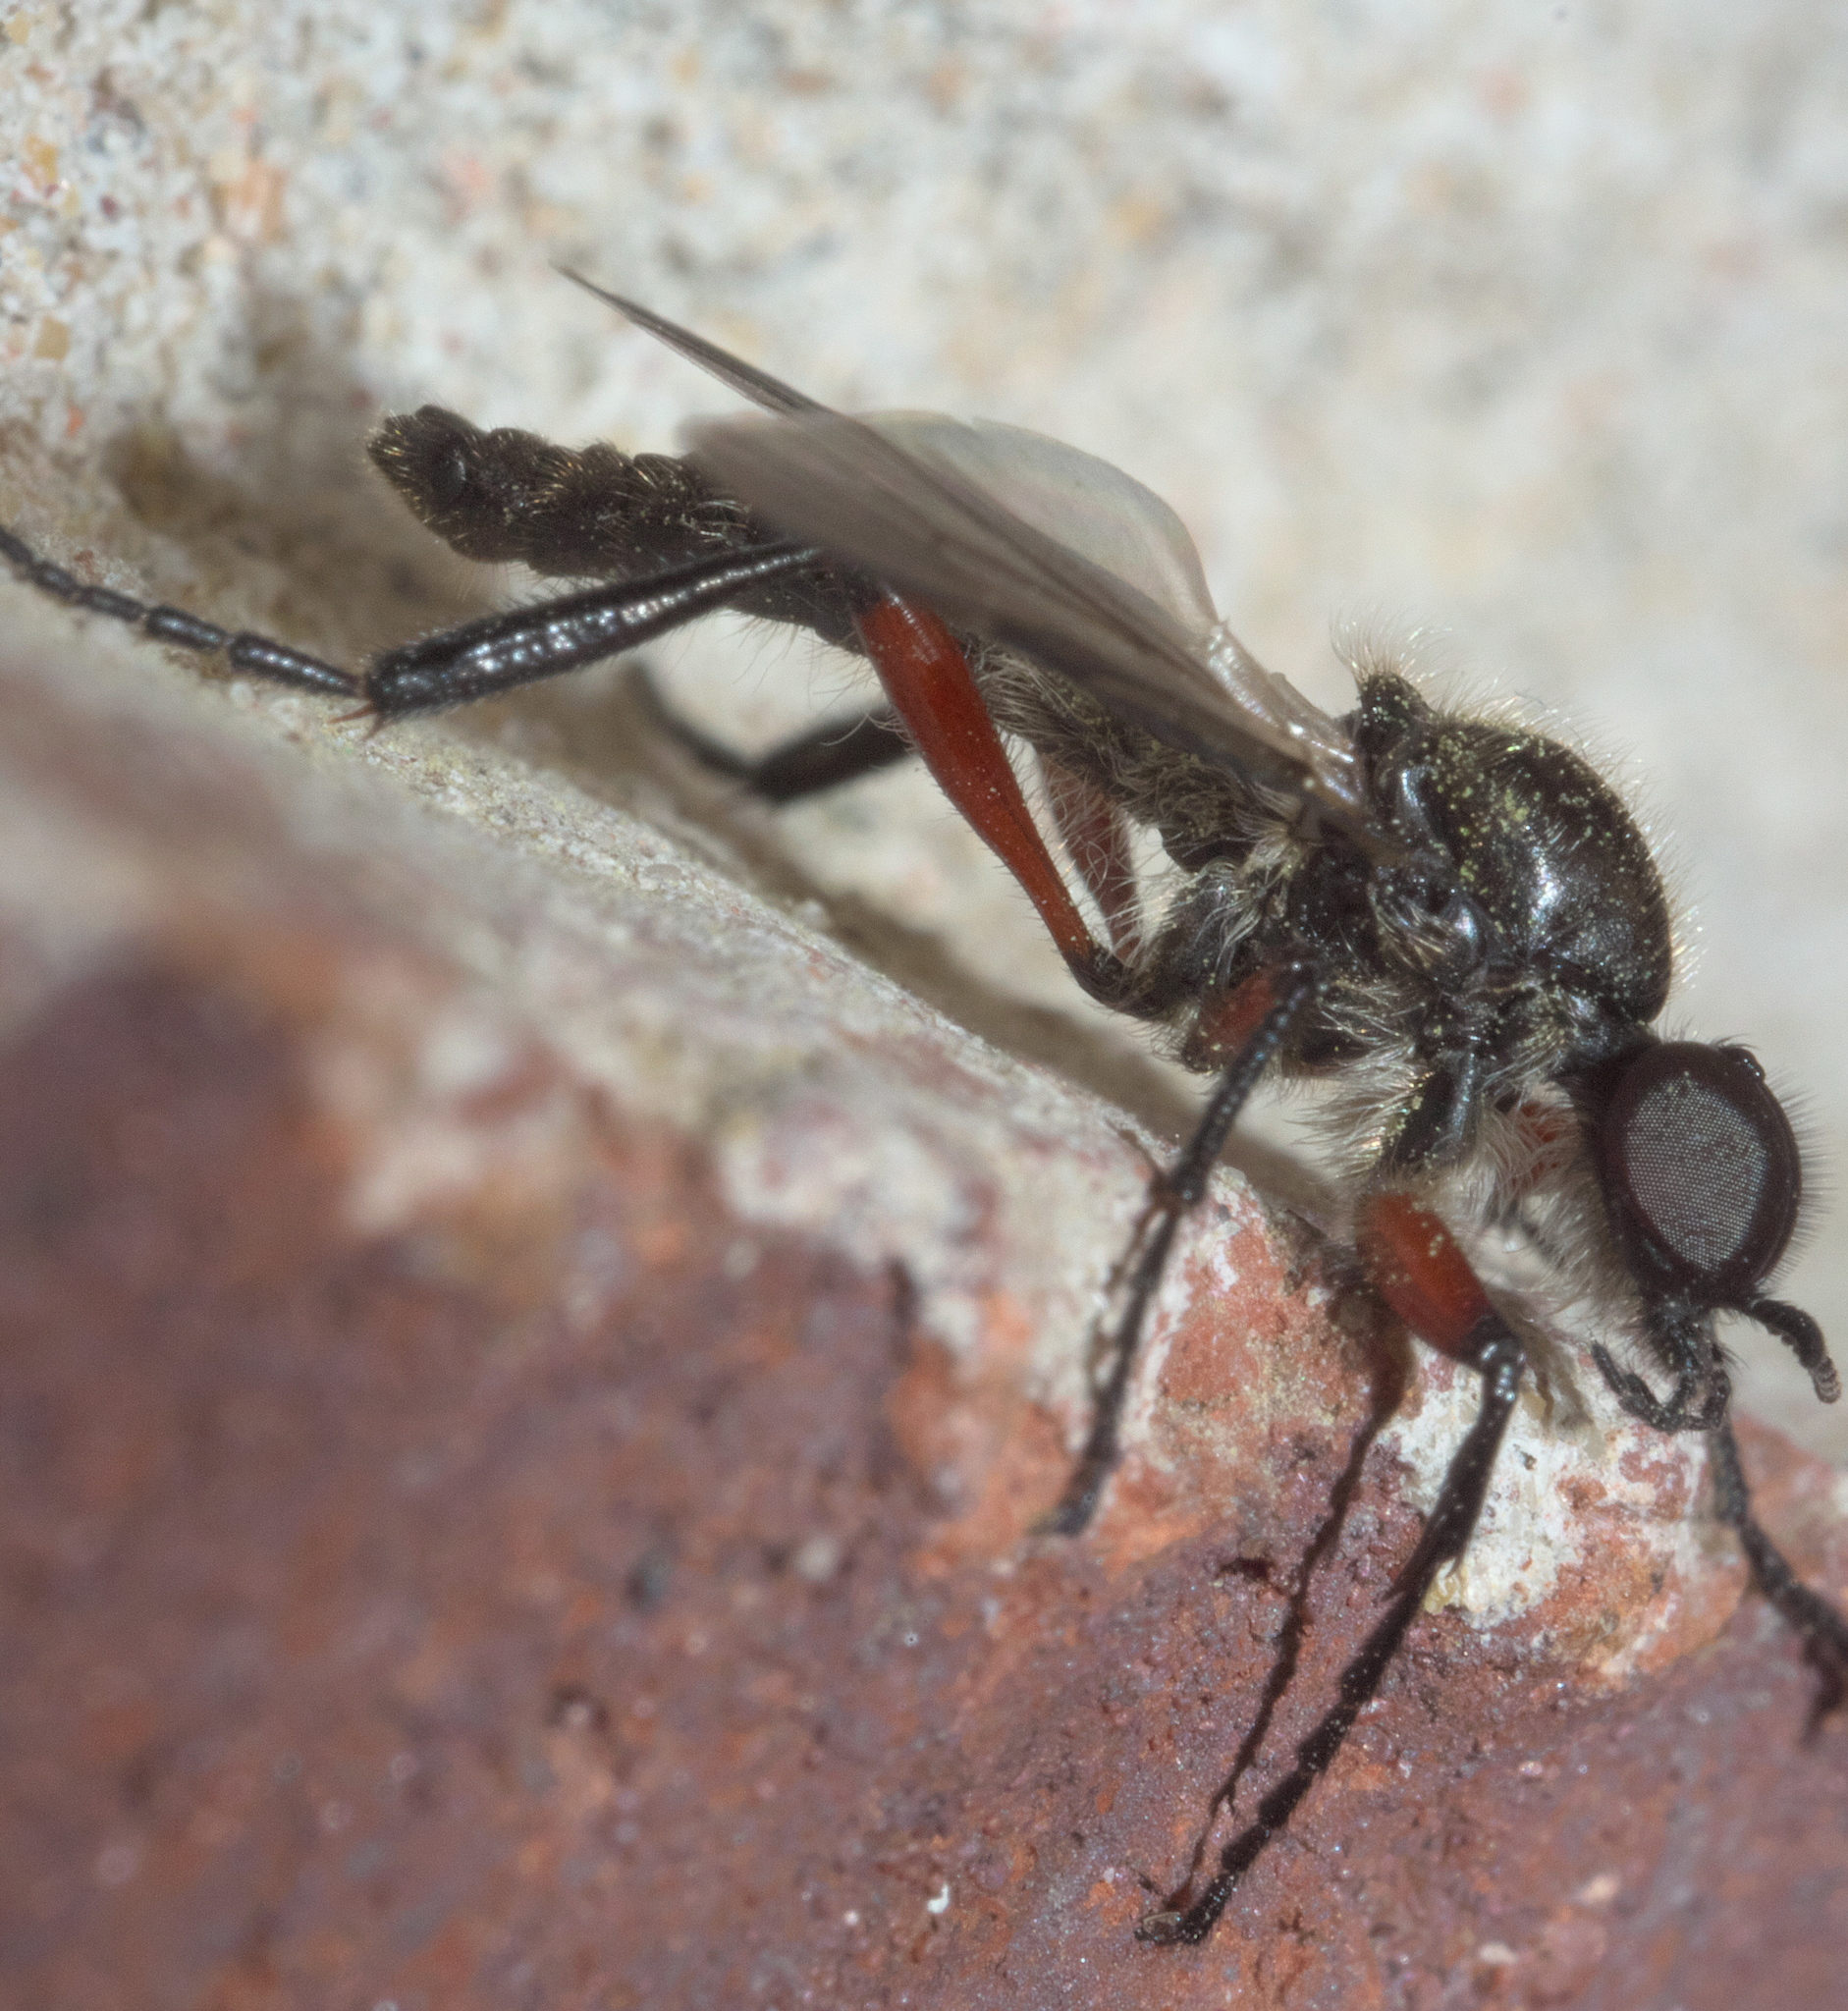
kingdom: Animalia
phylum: Arthropoda
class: Insecta
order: Diptera
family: Bibionidae
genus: Bibio
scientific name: Bibio femoratus
